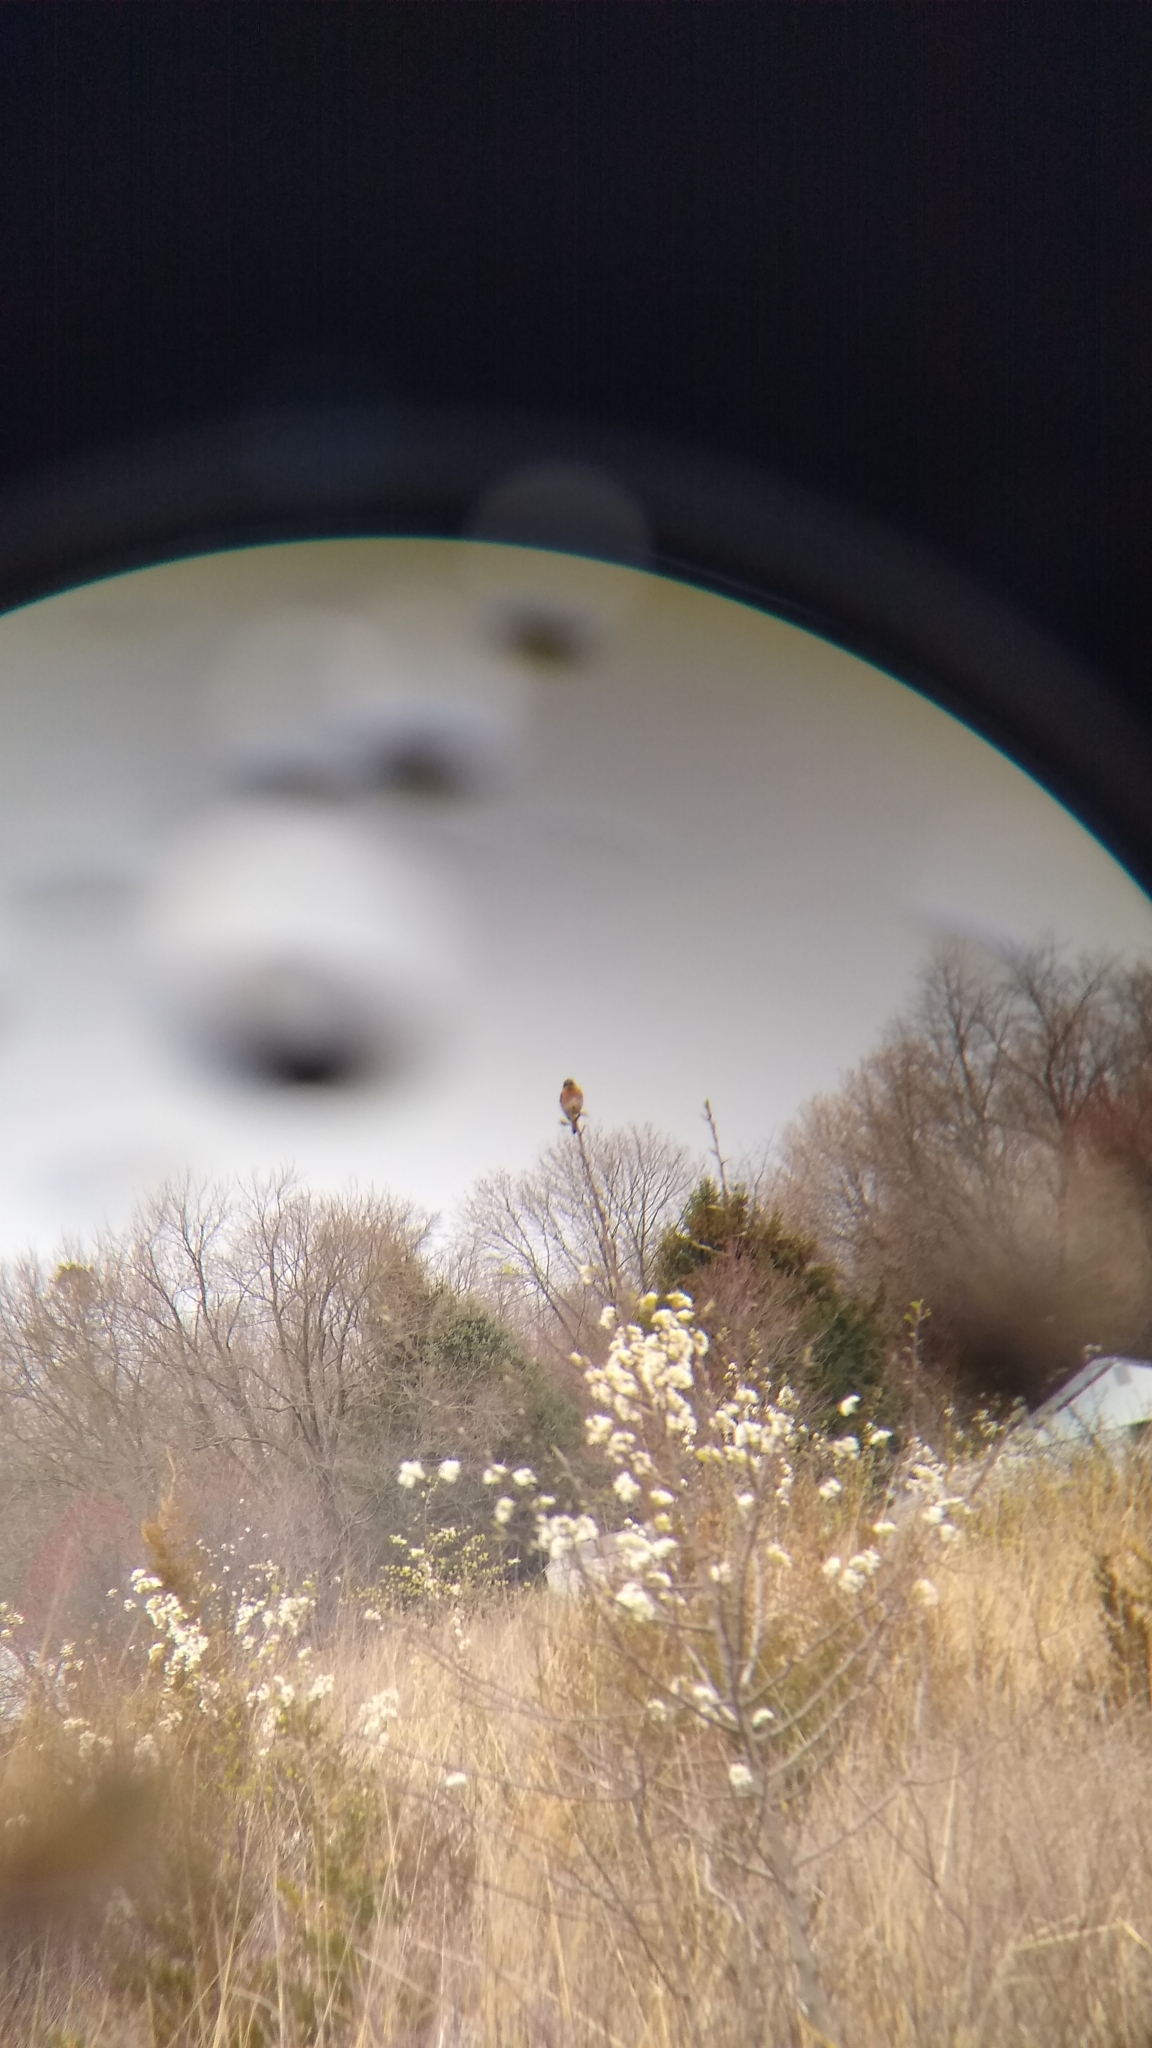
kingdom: Animalia
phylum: Chordata
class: Aves
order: Passeriformes
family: Turdidae
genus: Sialia
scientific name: Sialia sialis
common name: Eastern bluebird
